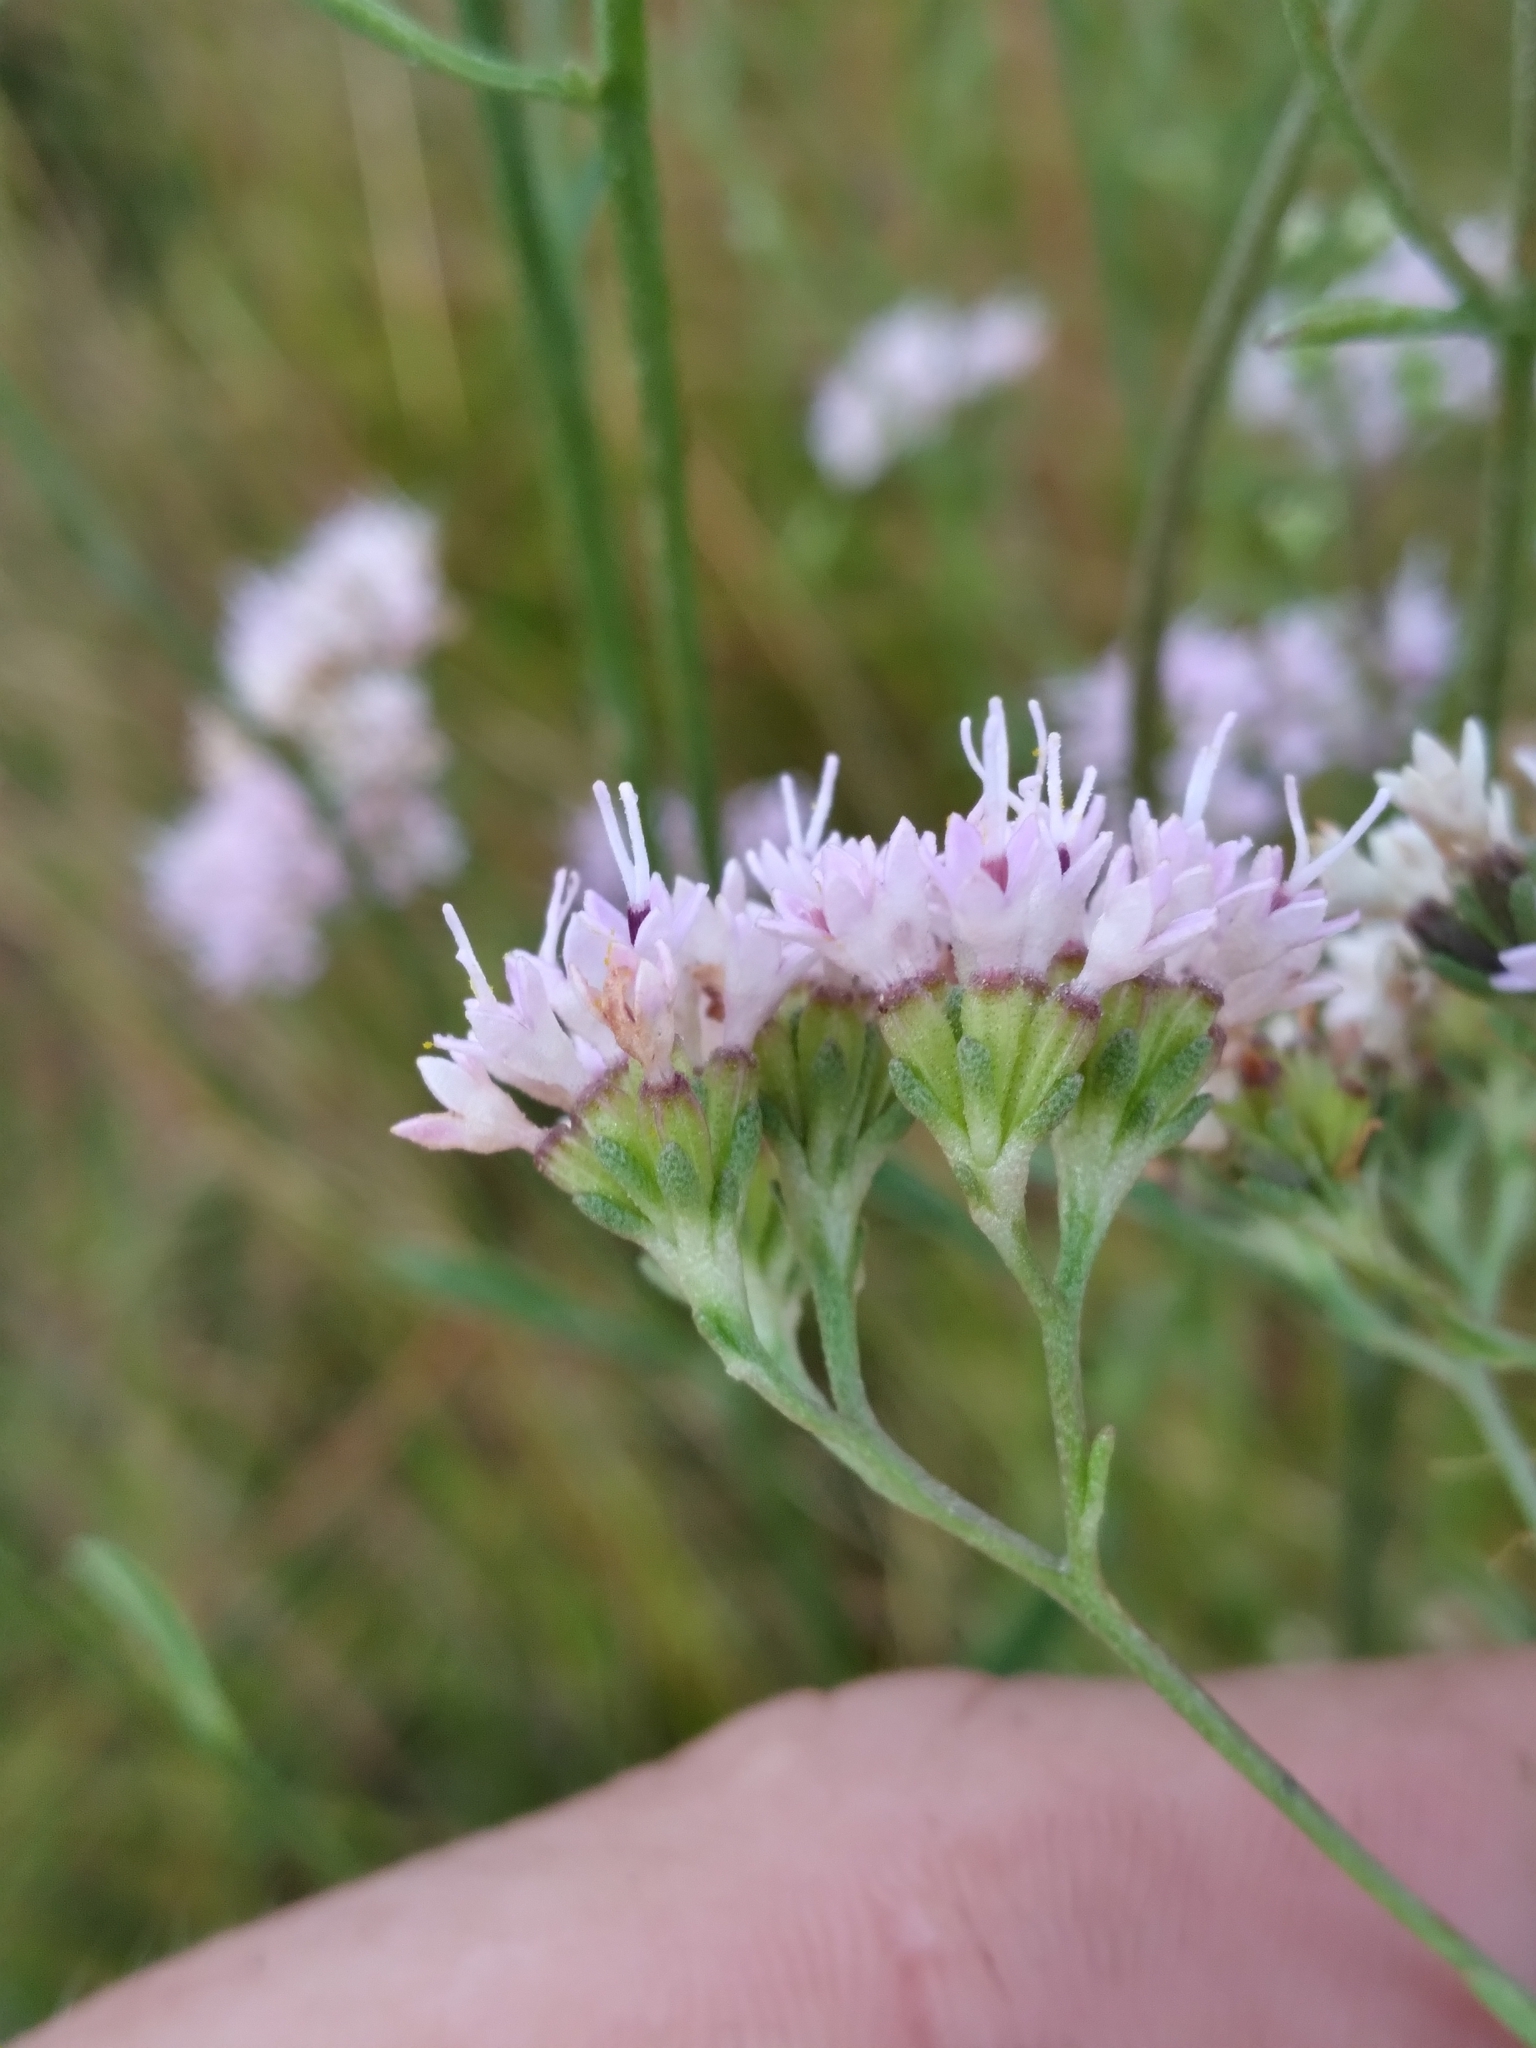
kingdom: Plantae
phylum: Tracheophyta
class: Magnoliopsida
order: Asterales
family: Asteraceae
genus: Hartwrightia
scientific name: Hartwrightia floridana
